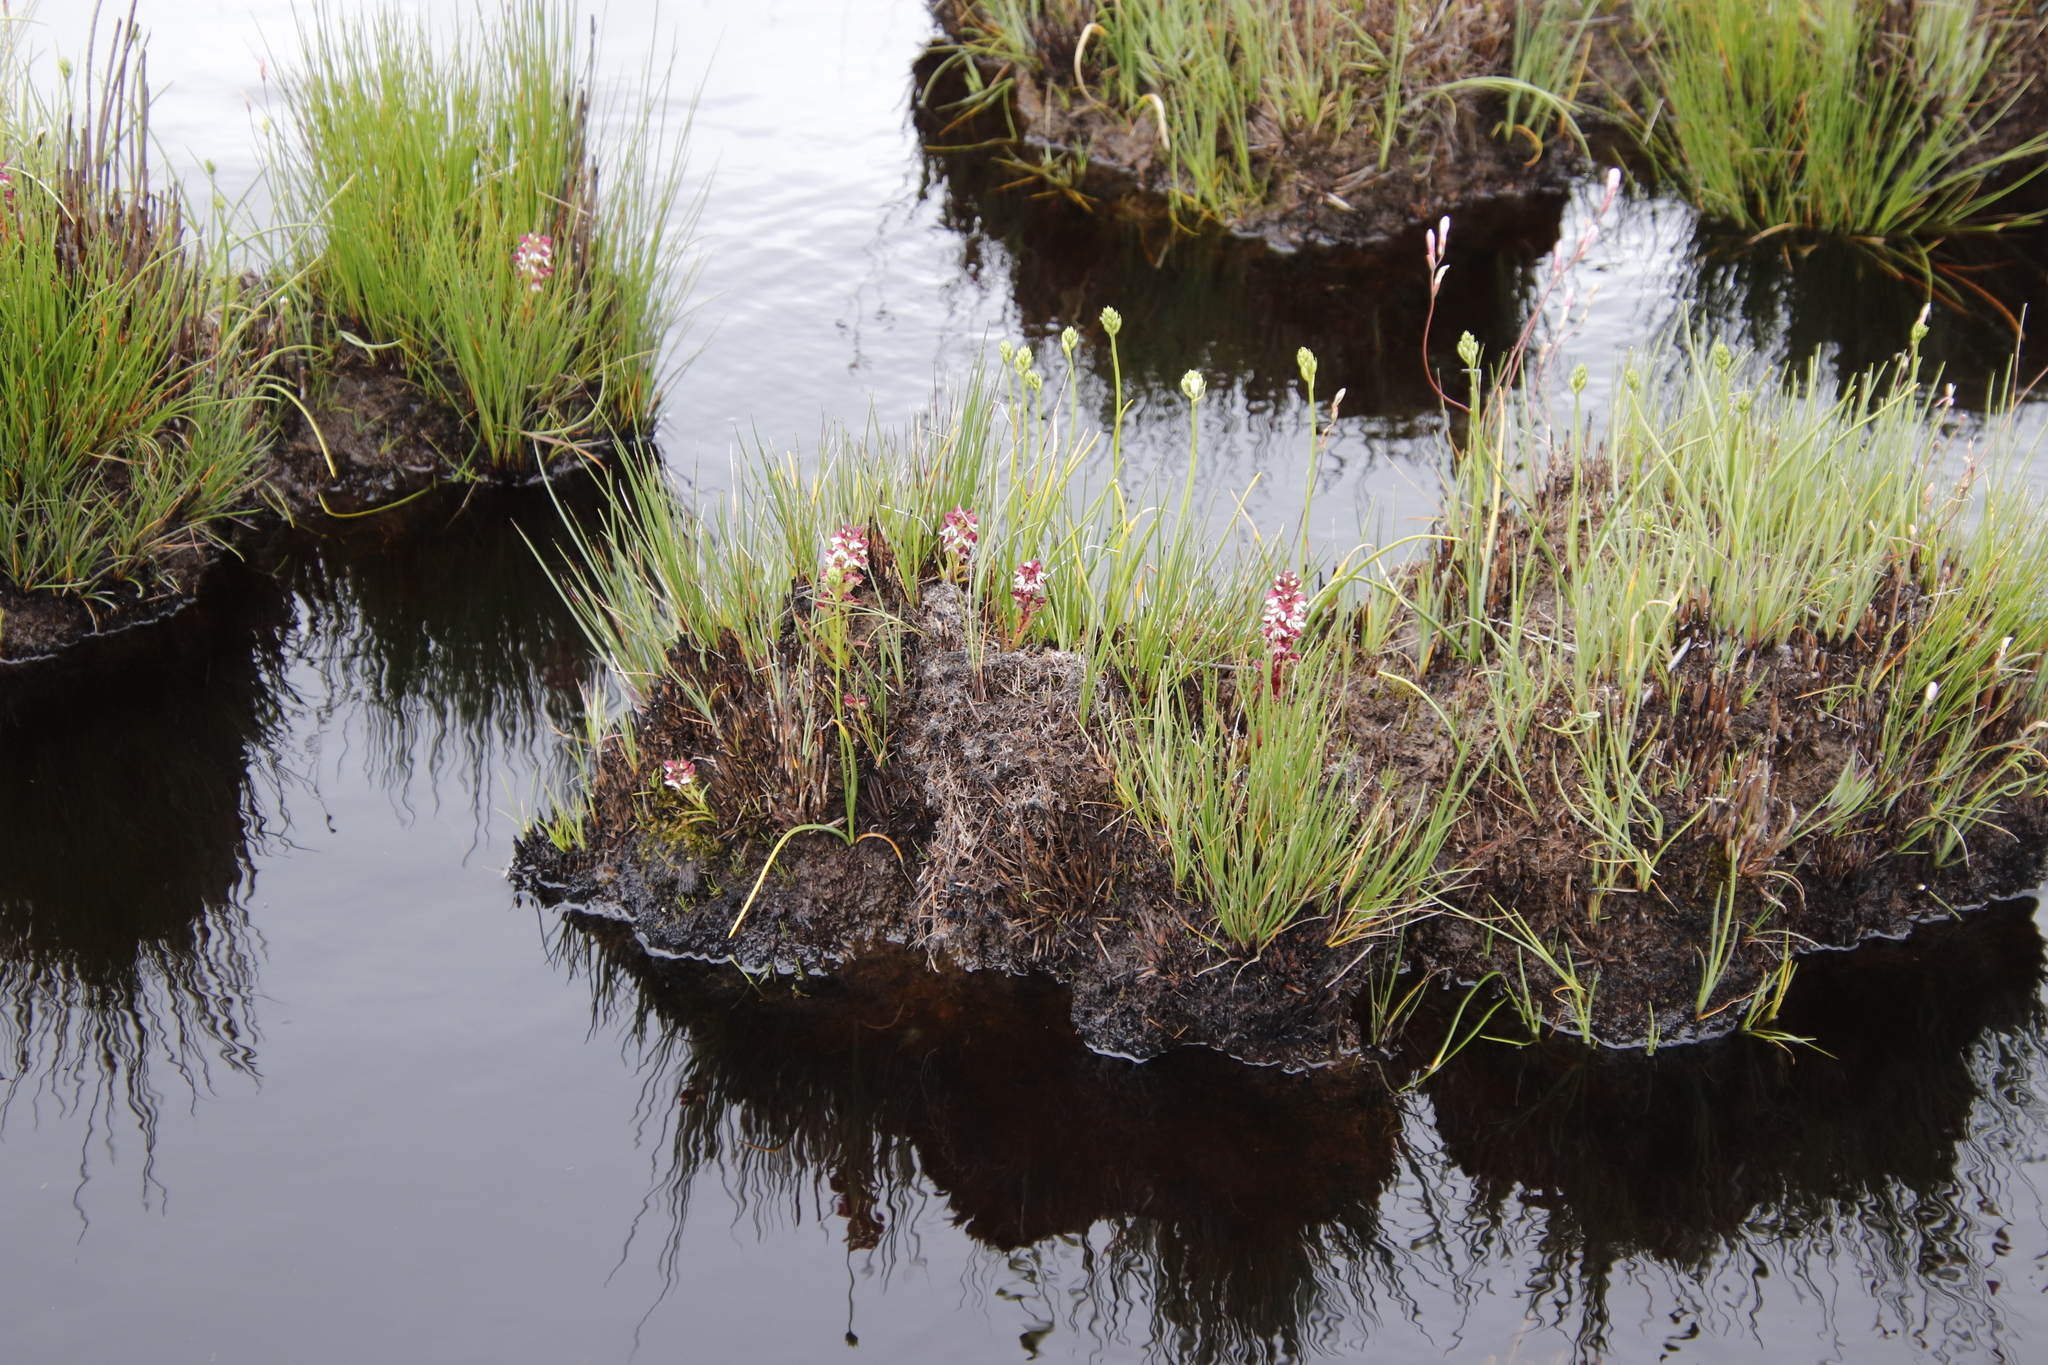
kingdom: Plantae
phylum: Tracheophyta
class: Liliopsida
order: Asparagales
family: Orchidaceae
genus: Disa
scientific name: Disa albomagentea
